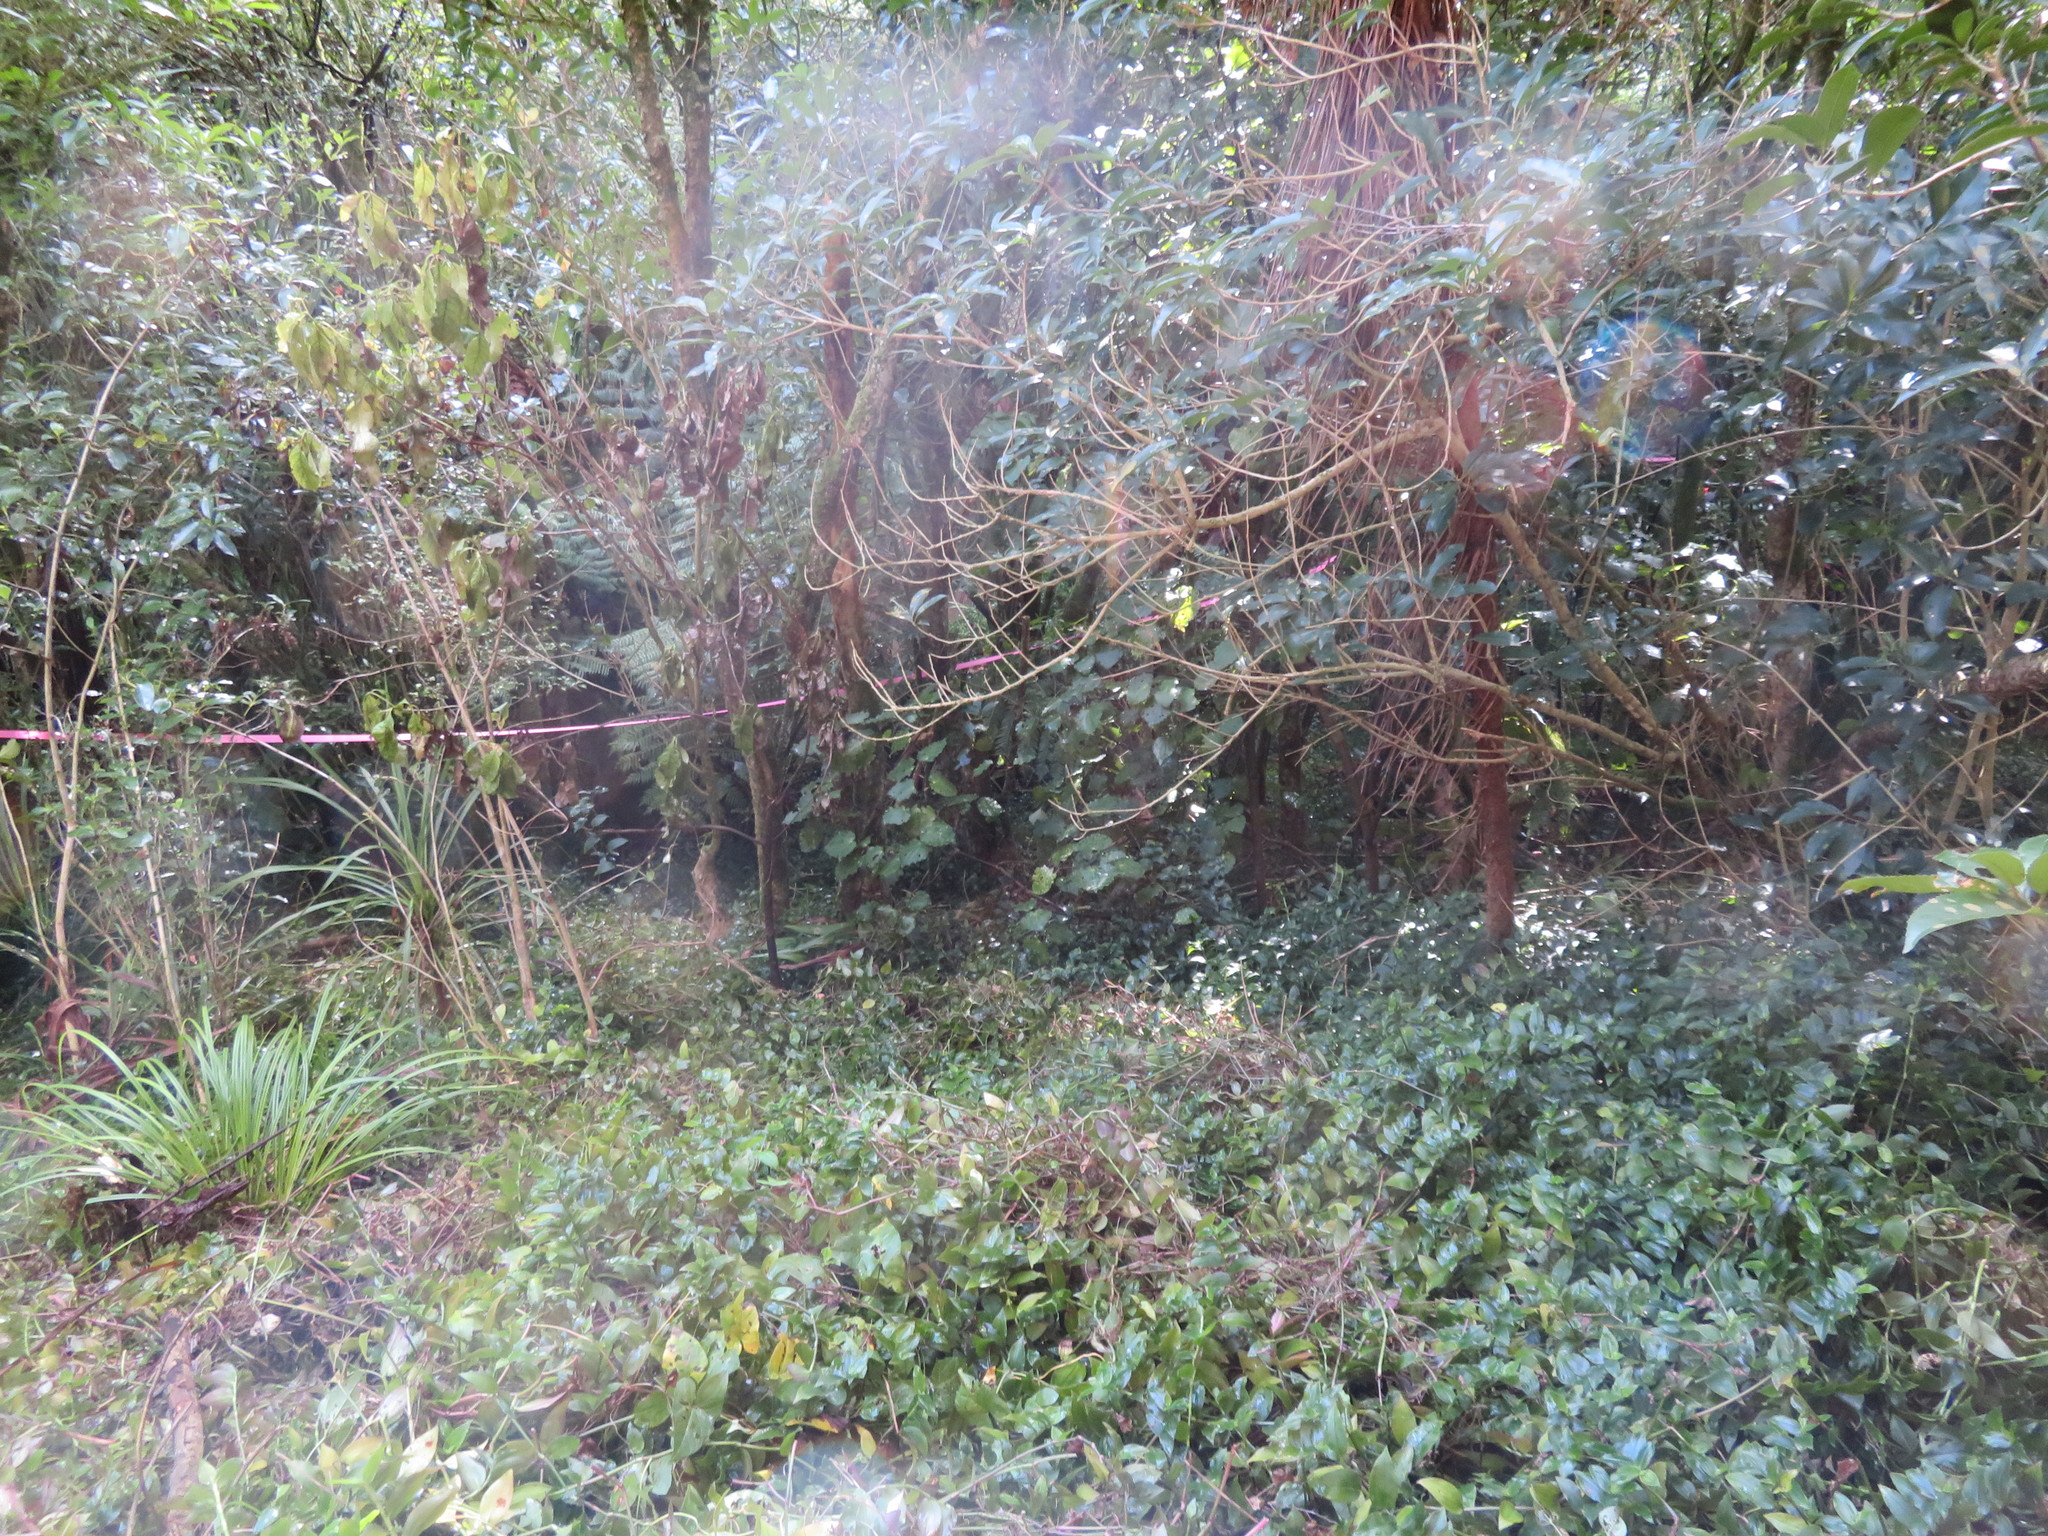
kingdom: Plantae
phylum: Tracheophyta
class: Magnoliopsida
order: Piperales
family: Piperaceae
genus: Macropiper
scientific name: Macropiper excelsum
